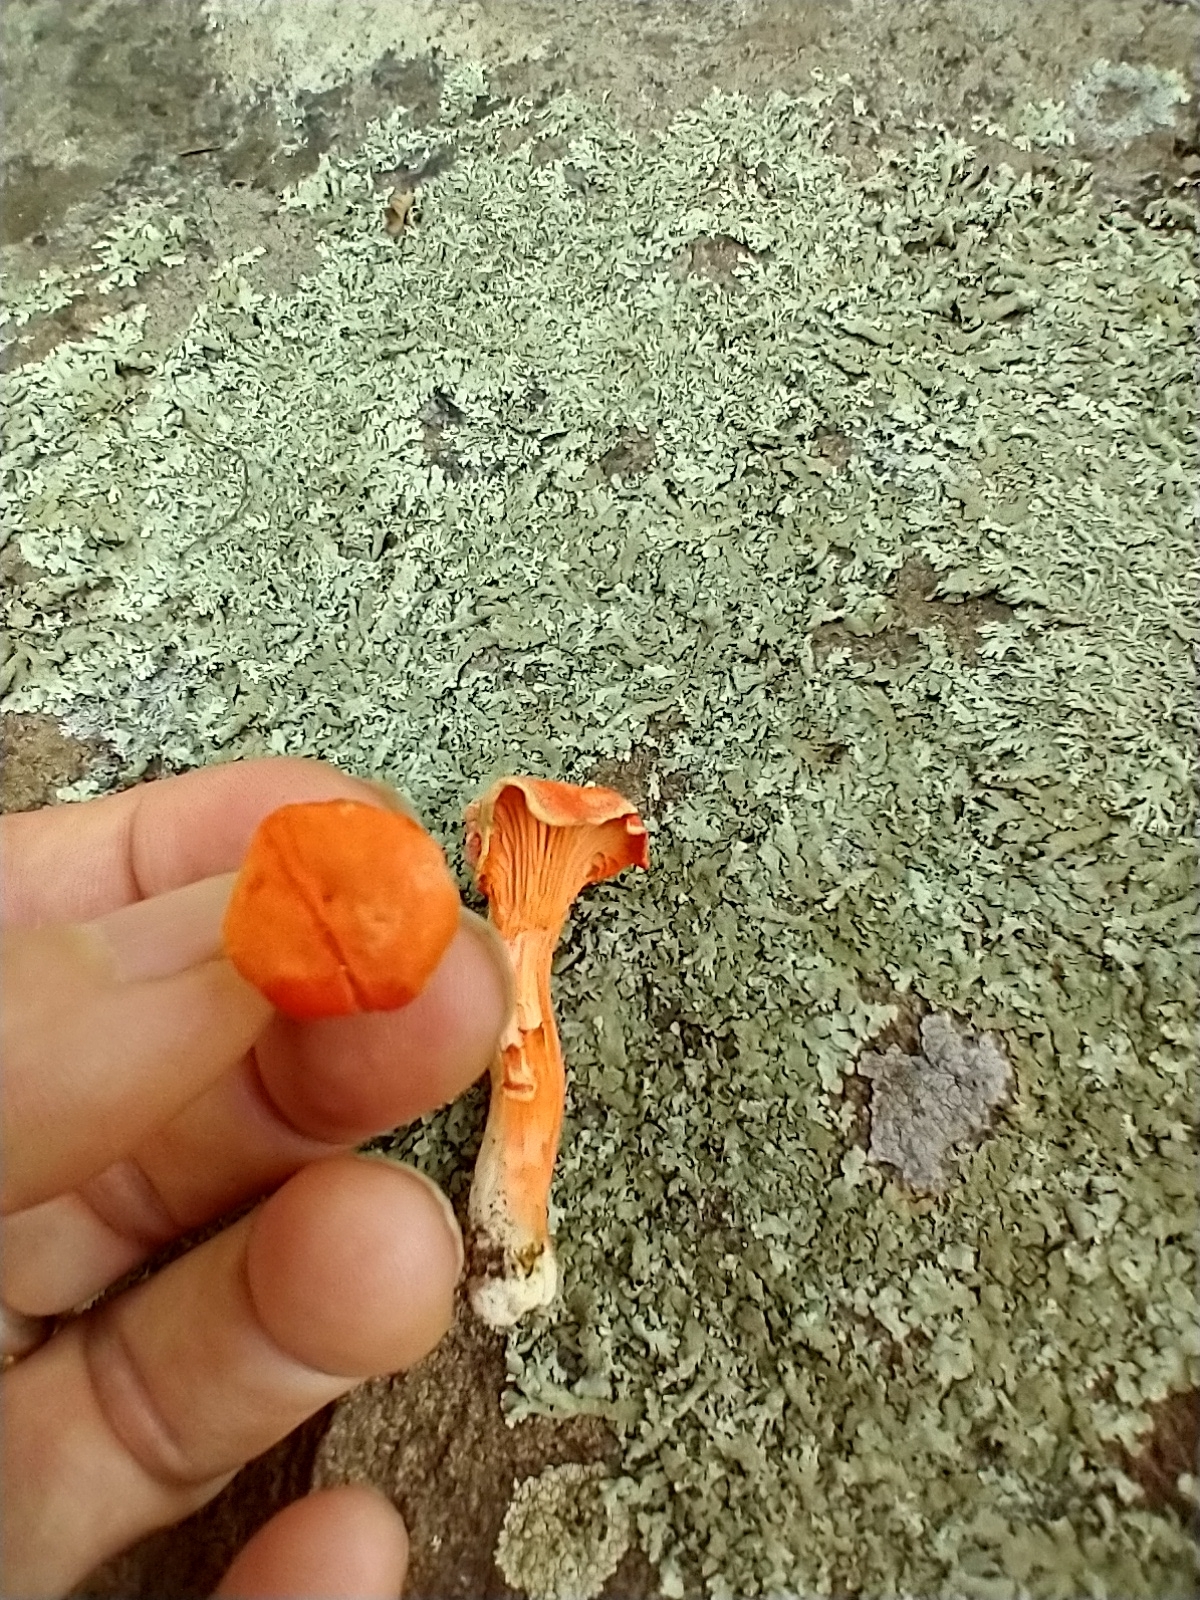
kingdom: Fungi
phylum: Basidiomycota
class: Agaricomycetes
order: Cantharellales
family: Hydnaceae
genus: Cantharellus
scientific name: Cantharellus cinnabarinus
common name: Cinnabar chanterelle
